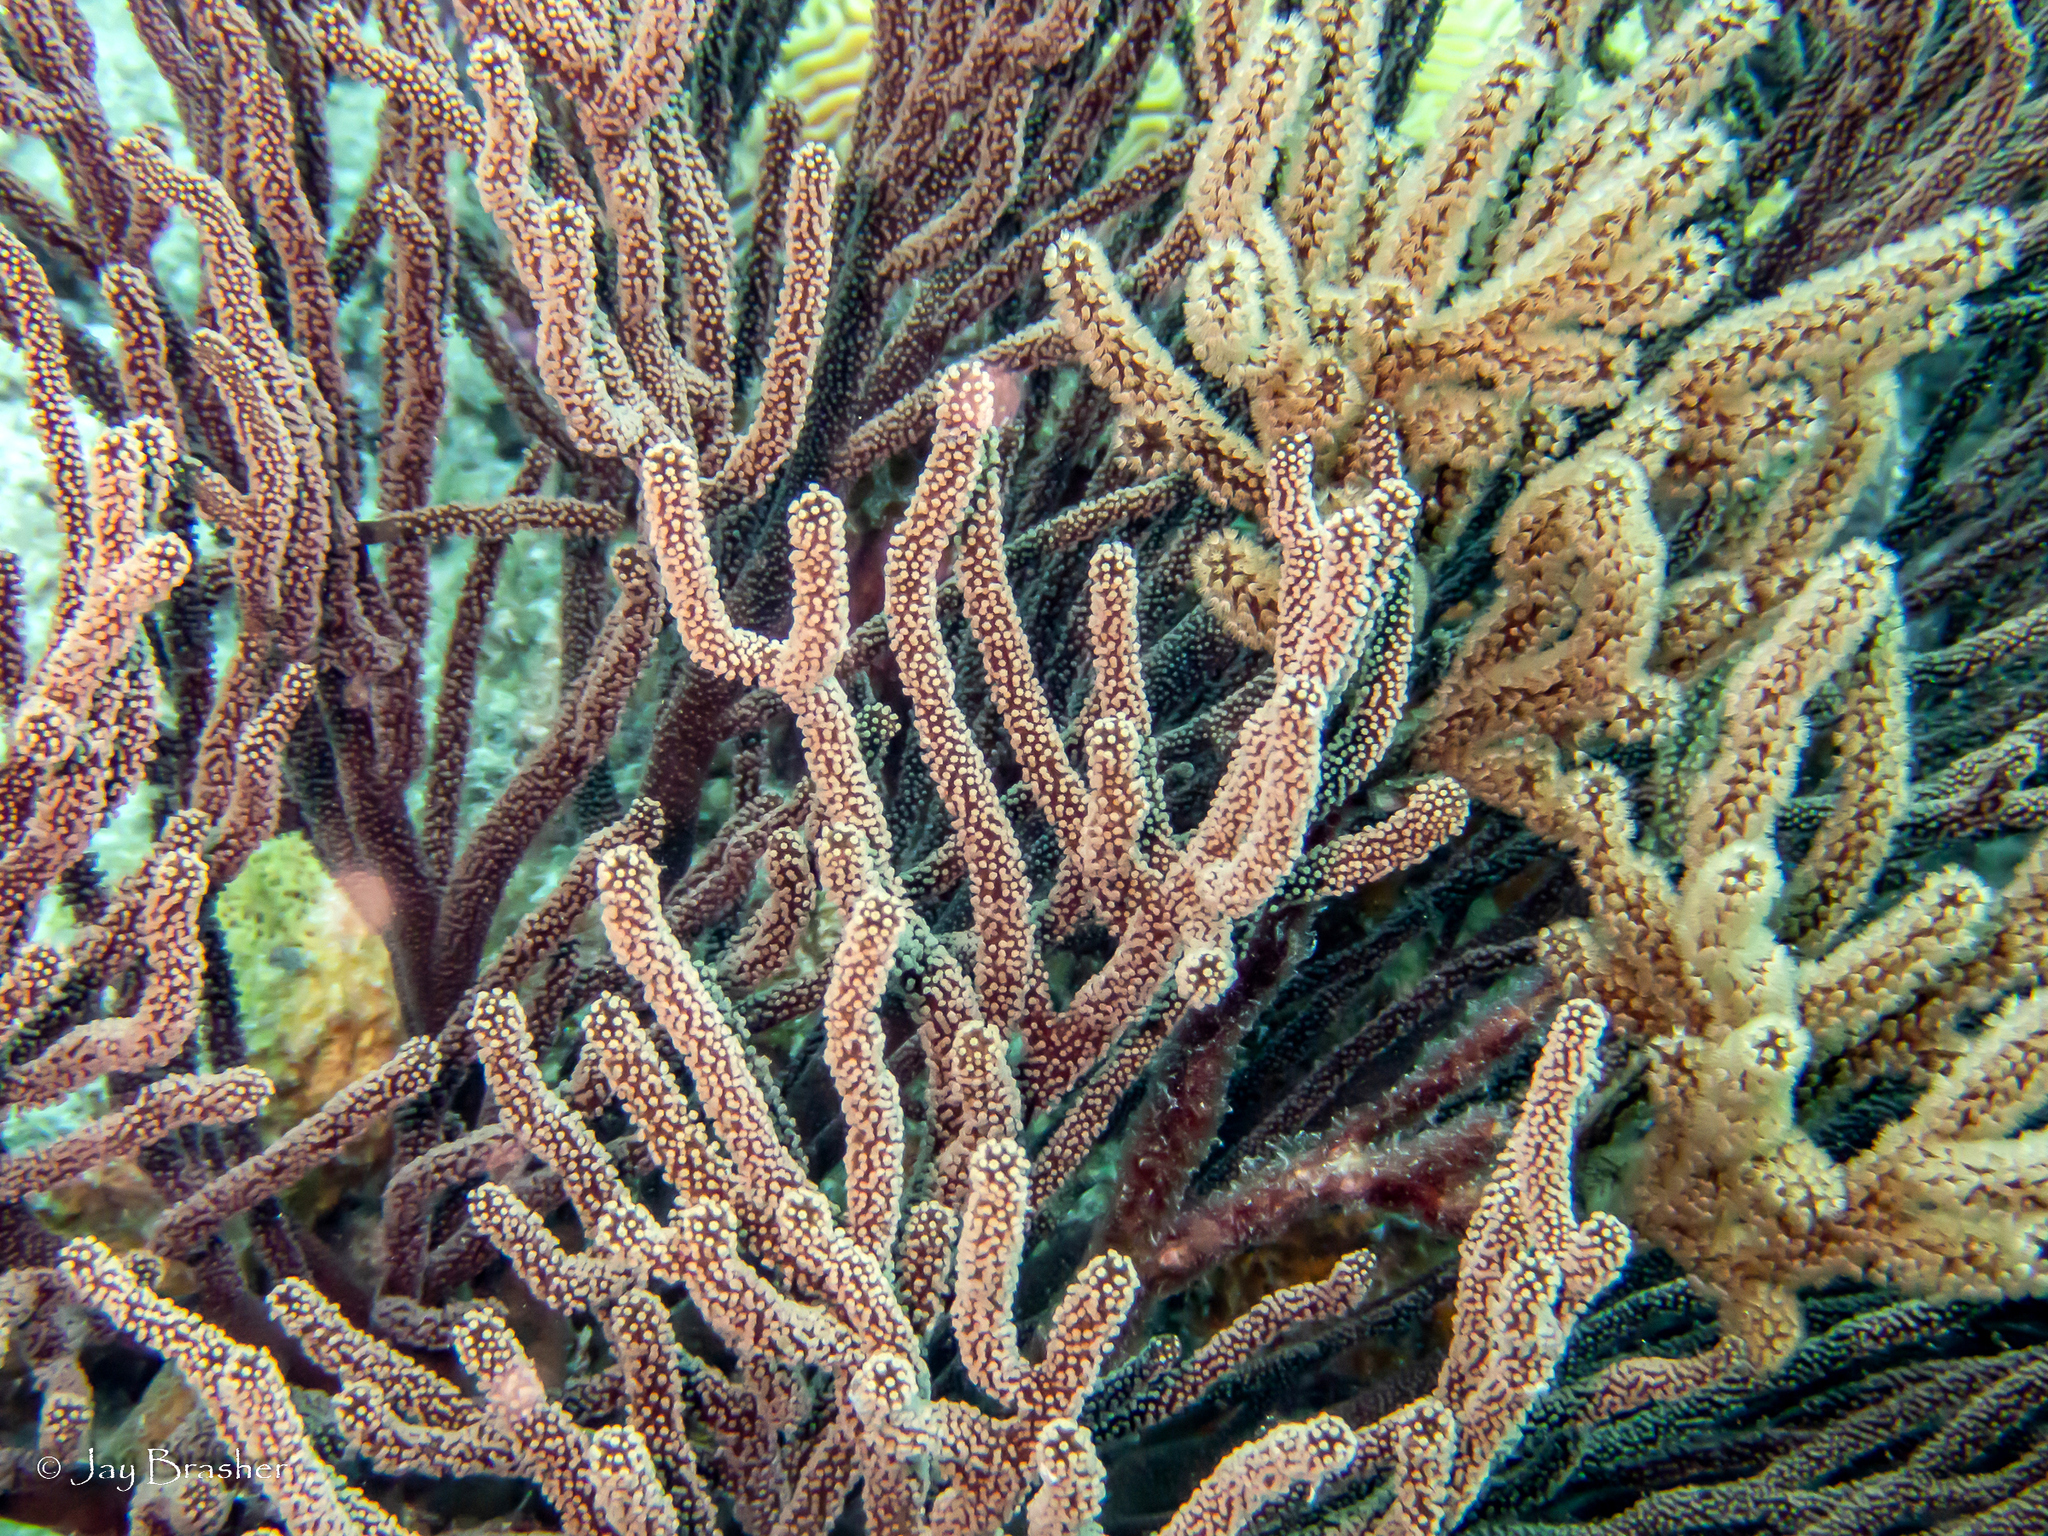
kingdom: Animalia
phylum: Cnidaria
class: Anthozoa
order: Malacalcyonacea
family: Plexauridae
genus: Plexaura
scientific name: Plexaura homomalla
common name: Black sea rod
